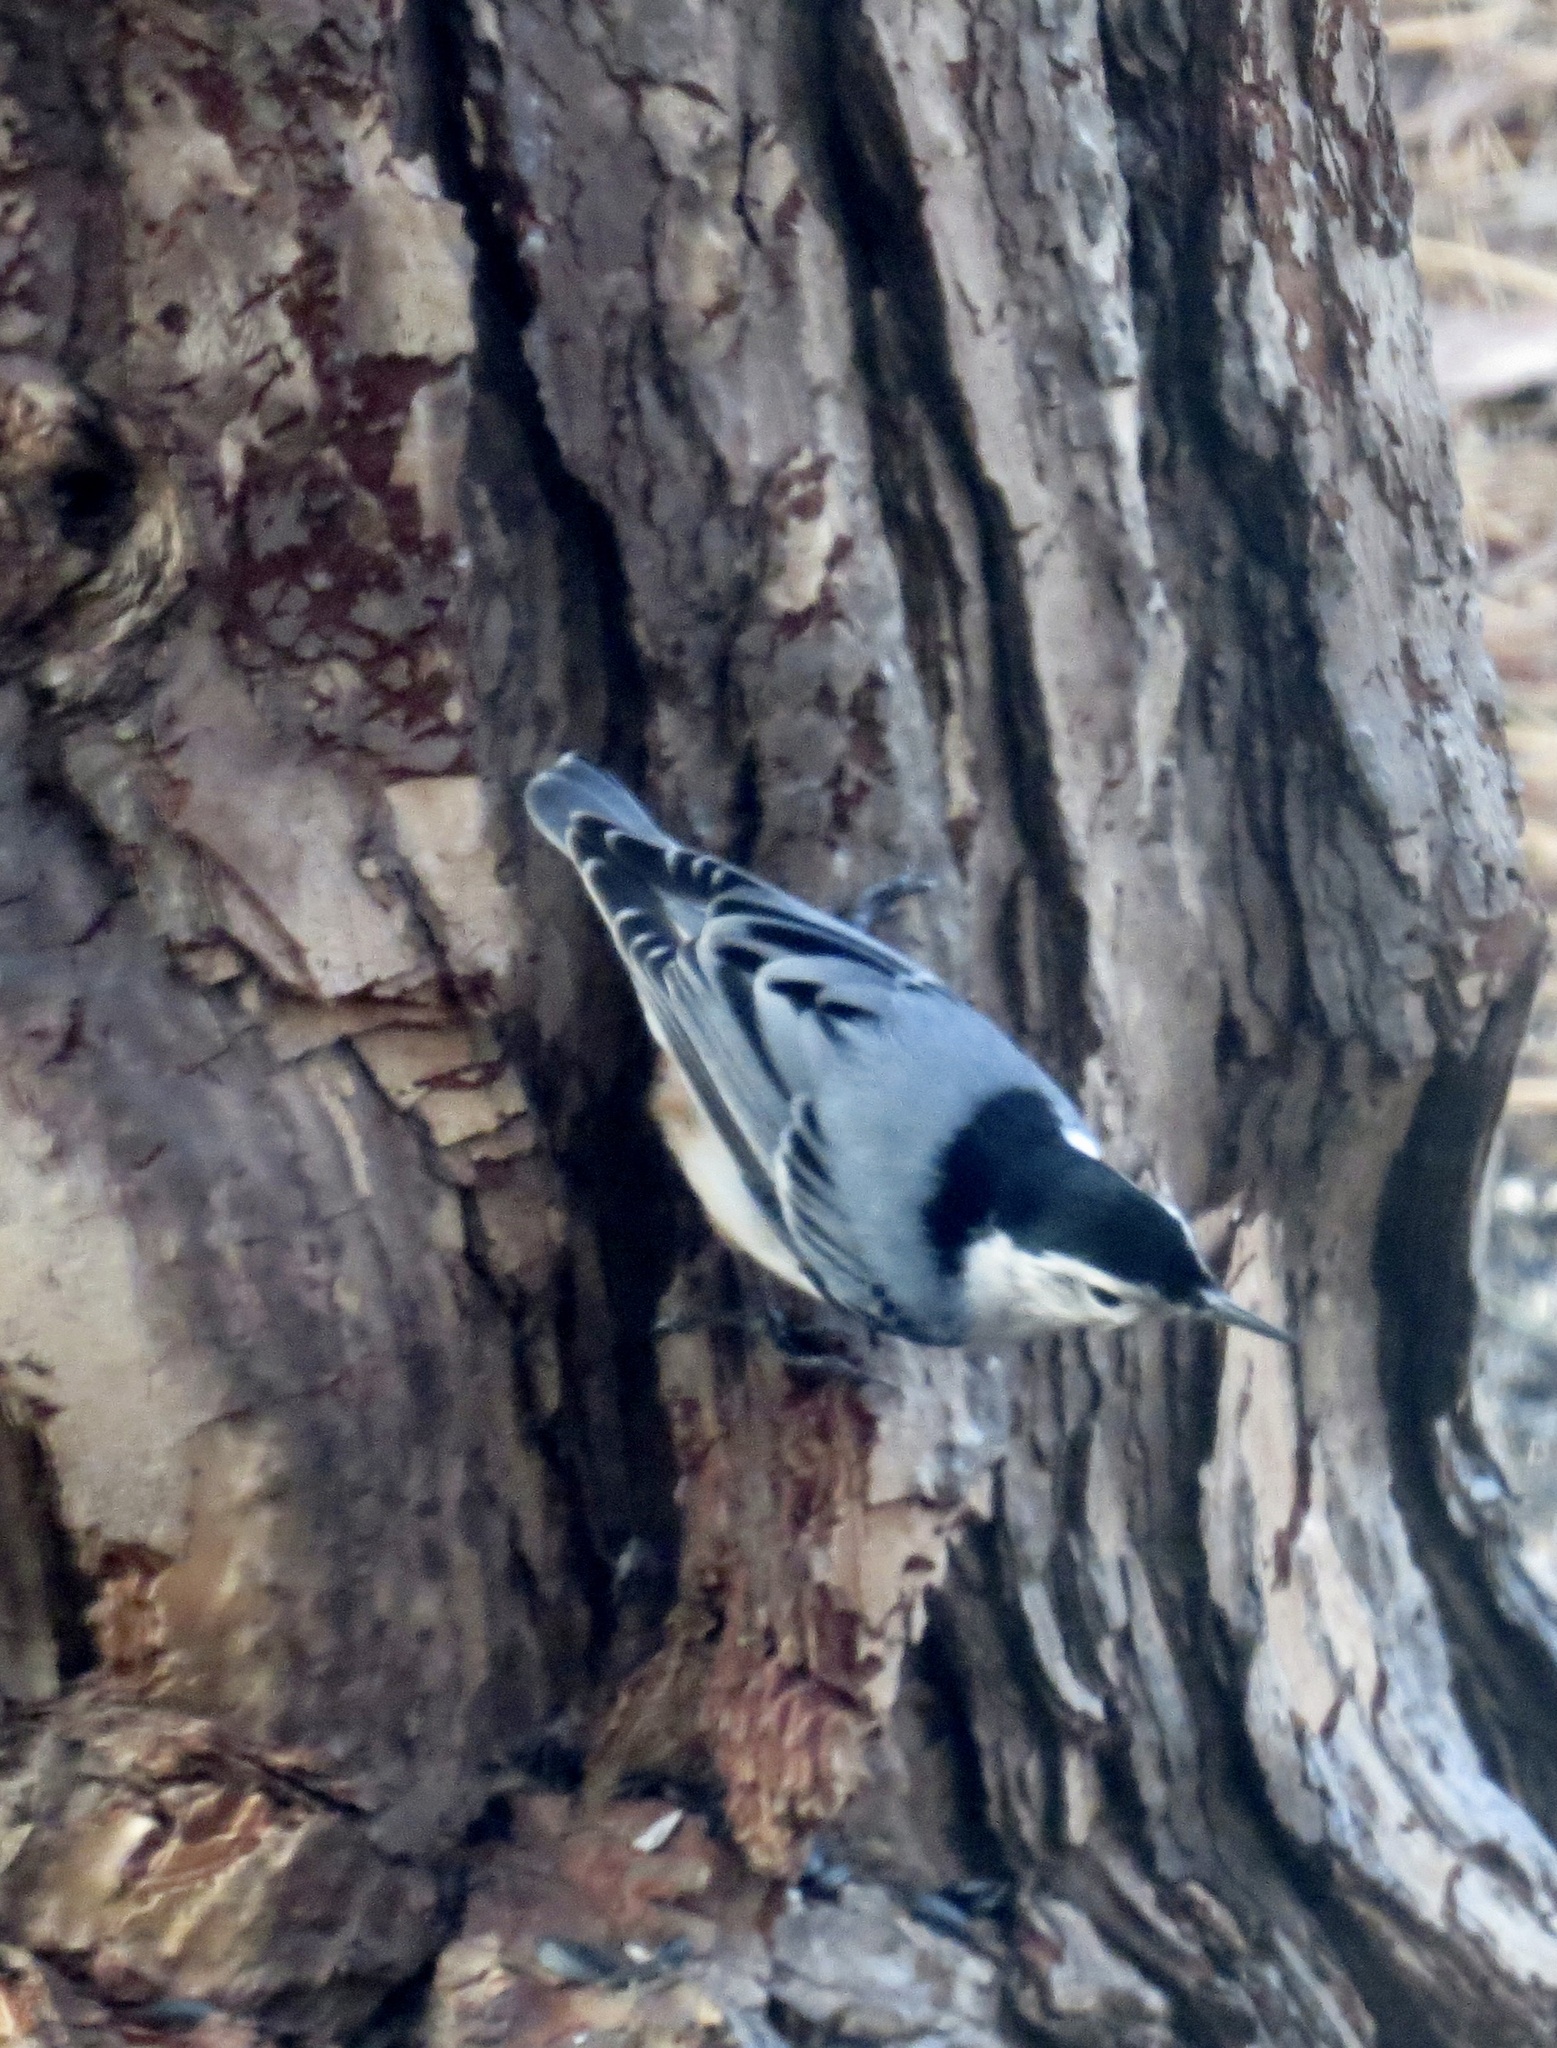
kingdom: Animalia
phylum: Chordata
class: Aves
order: Passeriformes
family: Sittidae
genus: Sitta
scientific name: Sitta carolinensis
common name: White-breasted nuthatch
